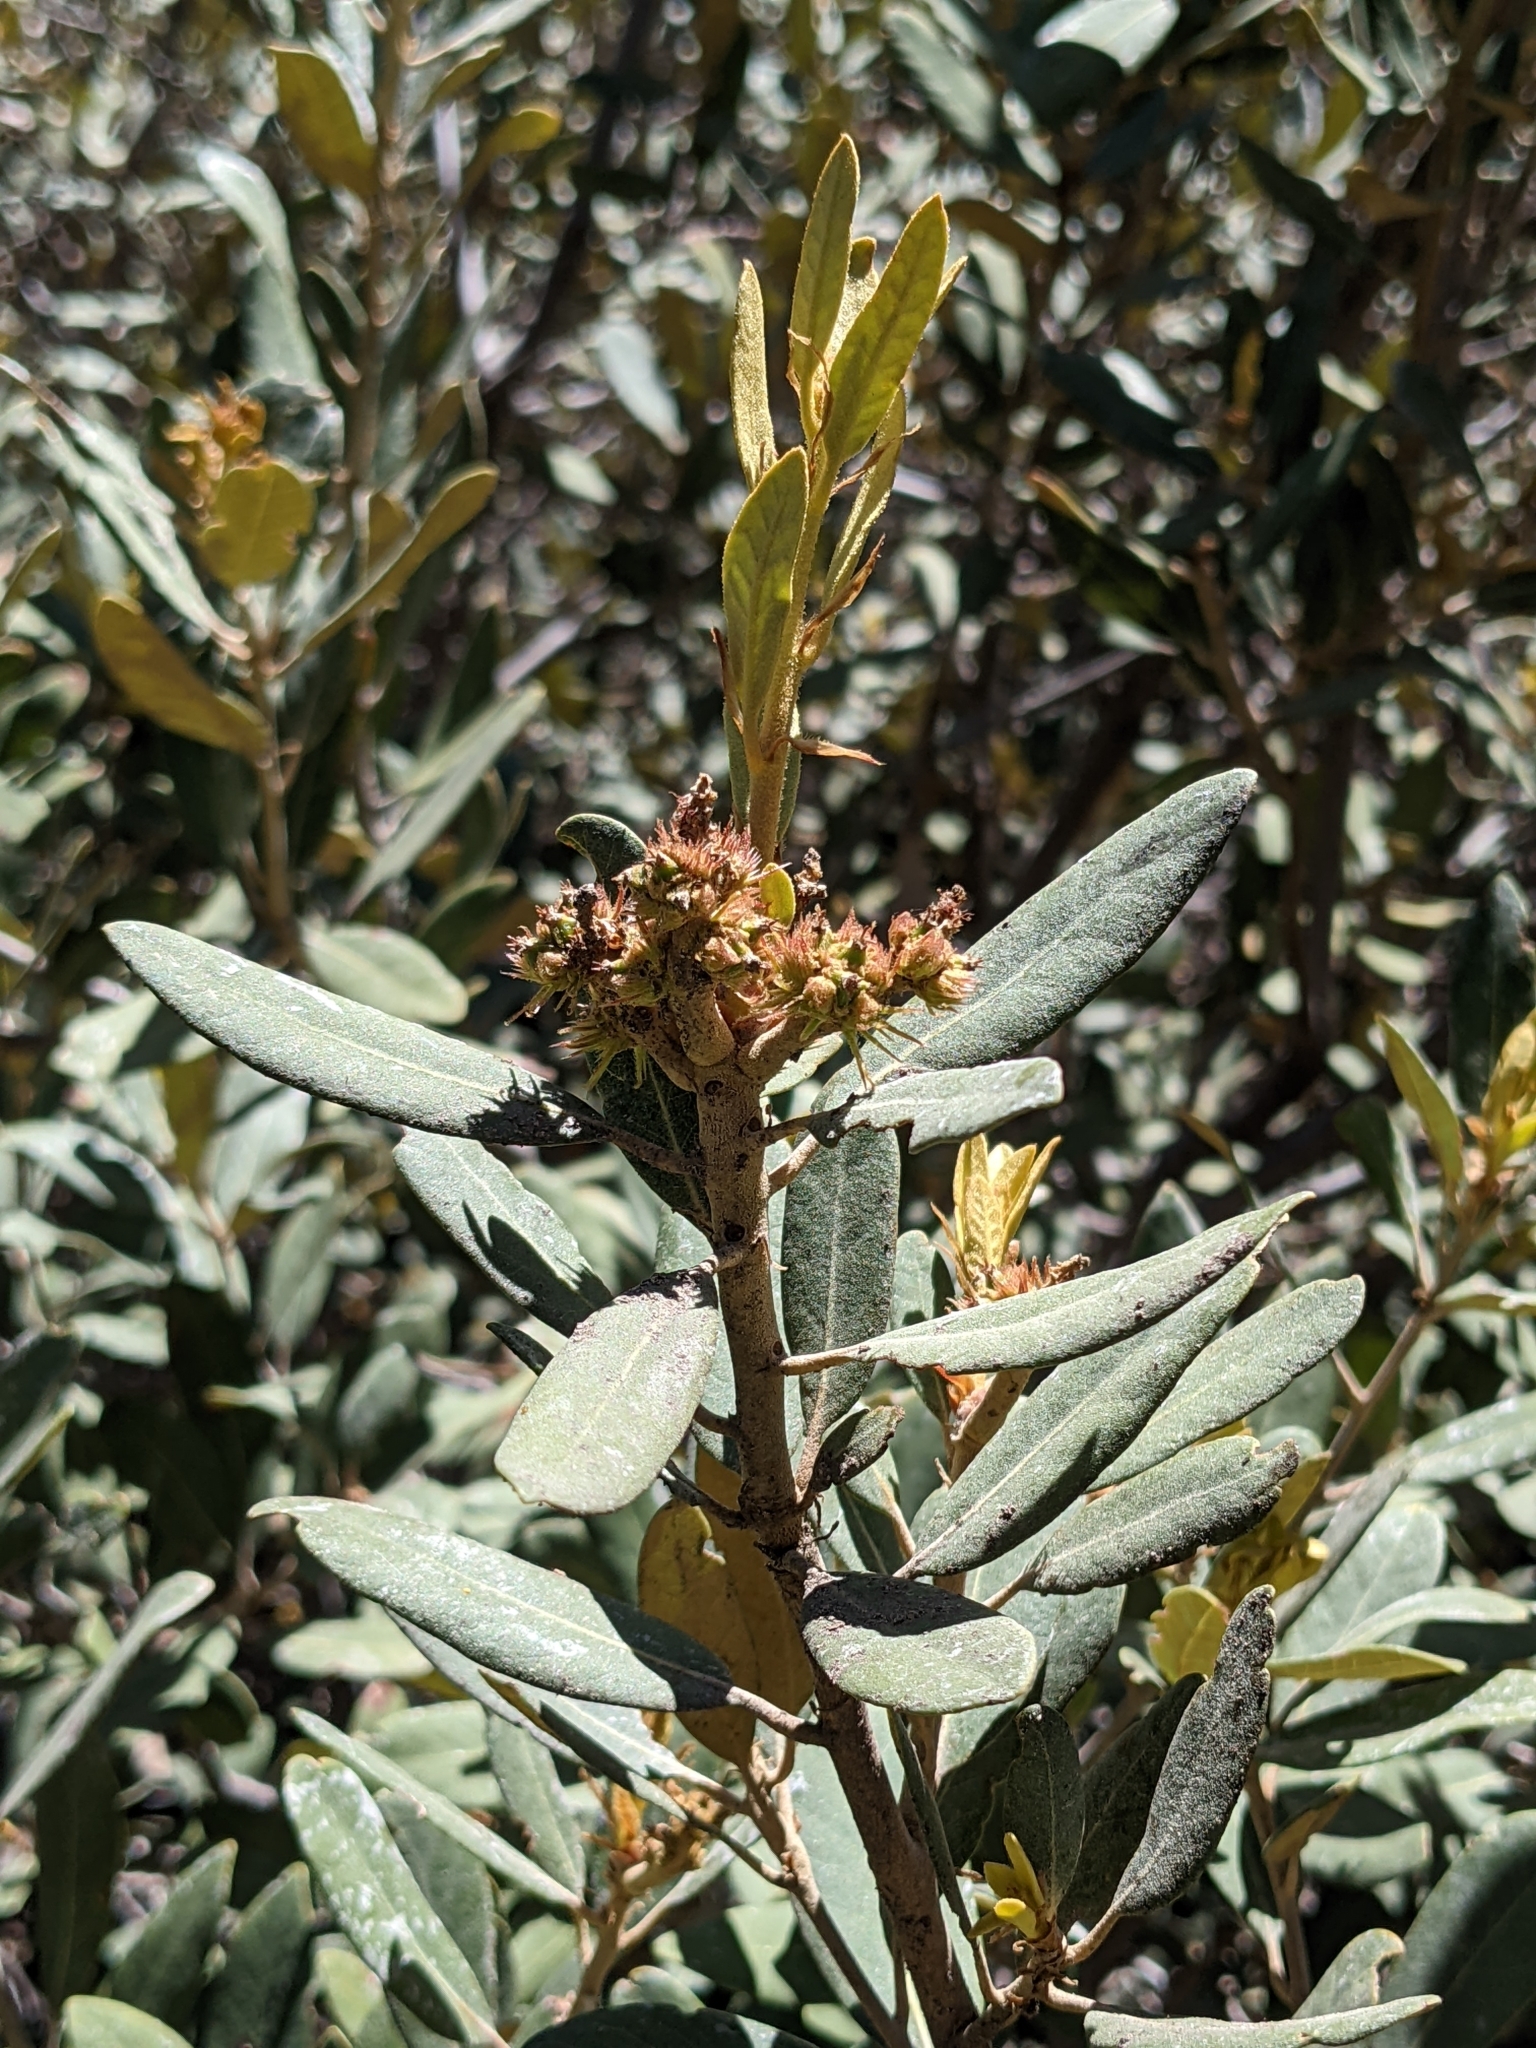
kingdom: Plantae
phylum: Tracheophyta
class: Magnoliopsida
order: Fagales
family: Fagaceae
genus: Chrysolepis
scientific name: Chrysolepis sempervirens
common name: Bush chinquapin
